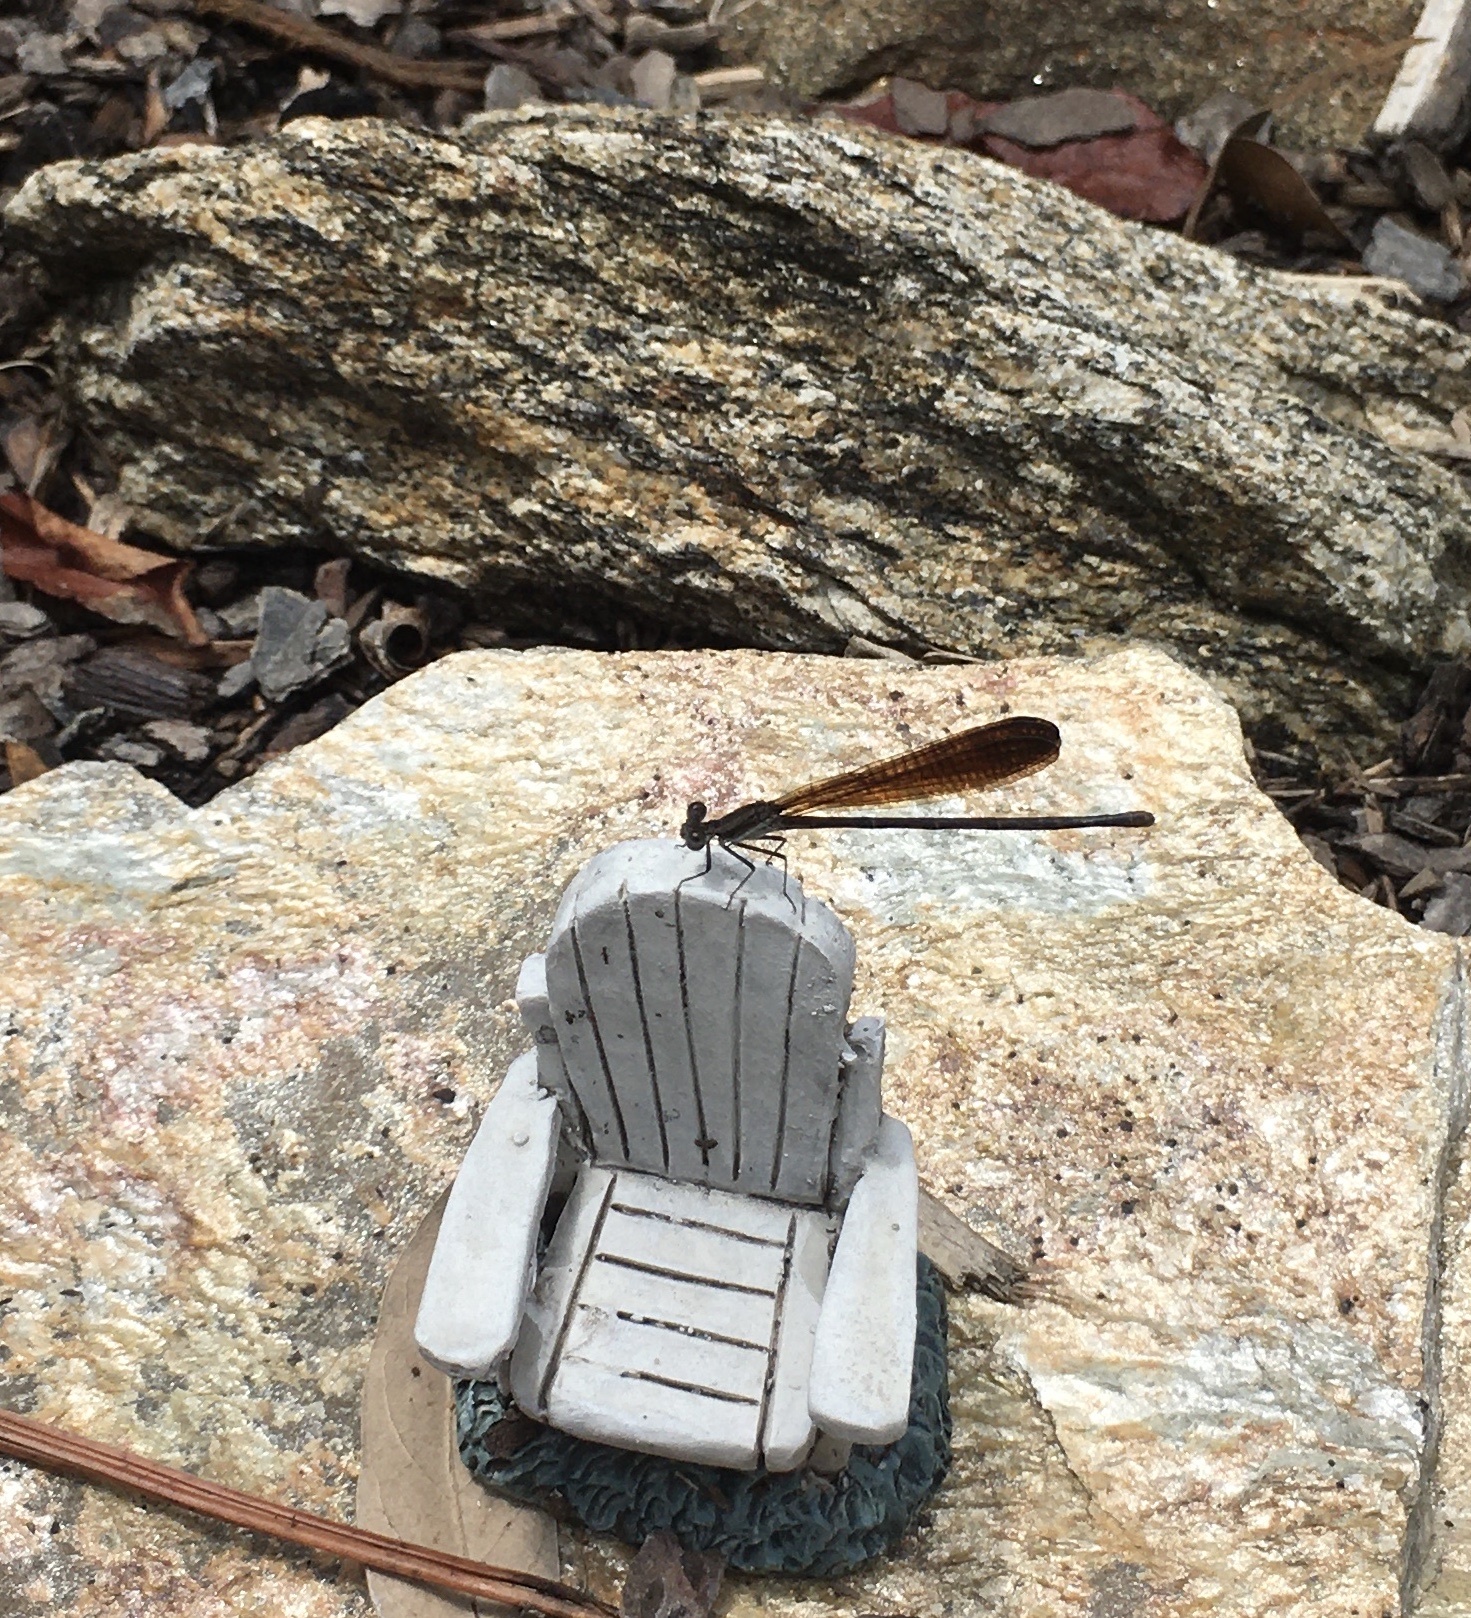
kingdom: Animalia
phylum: Arthropoda
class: Insecta
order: Odonata
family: Coenagrionidae
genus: Argia
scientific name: Argia fumipennis
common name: Variable dancer
